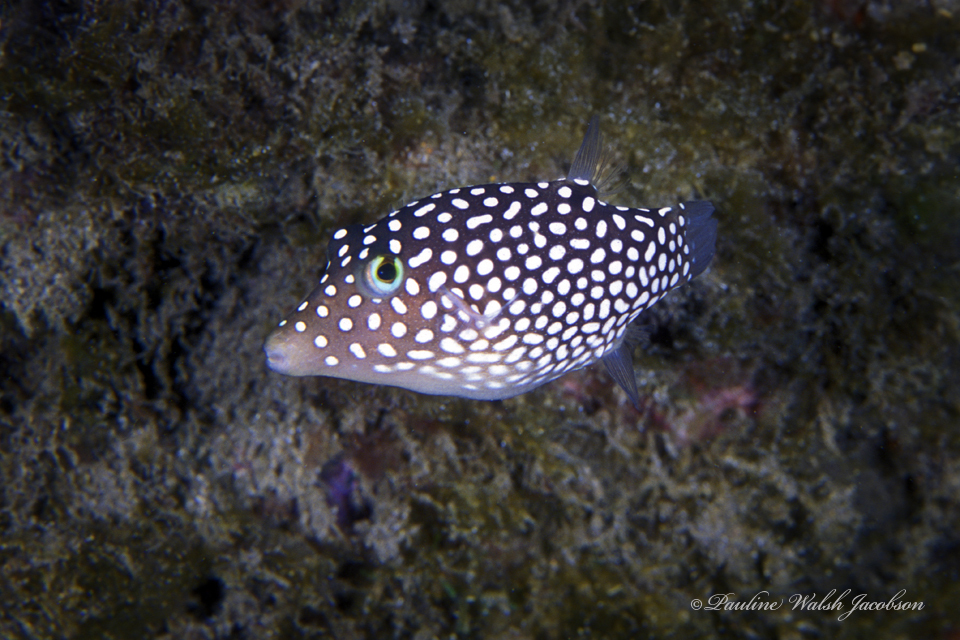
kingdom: Animalia
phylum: Chordata
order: Tetraodontiformes
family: Tetraodontidae
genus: Canthigaster
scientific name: Canthigaster jactator
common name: Hawaiian whitespotted toby
